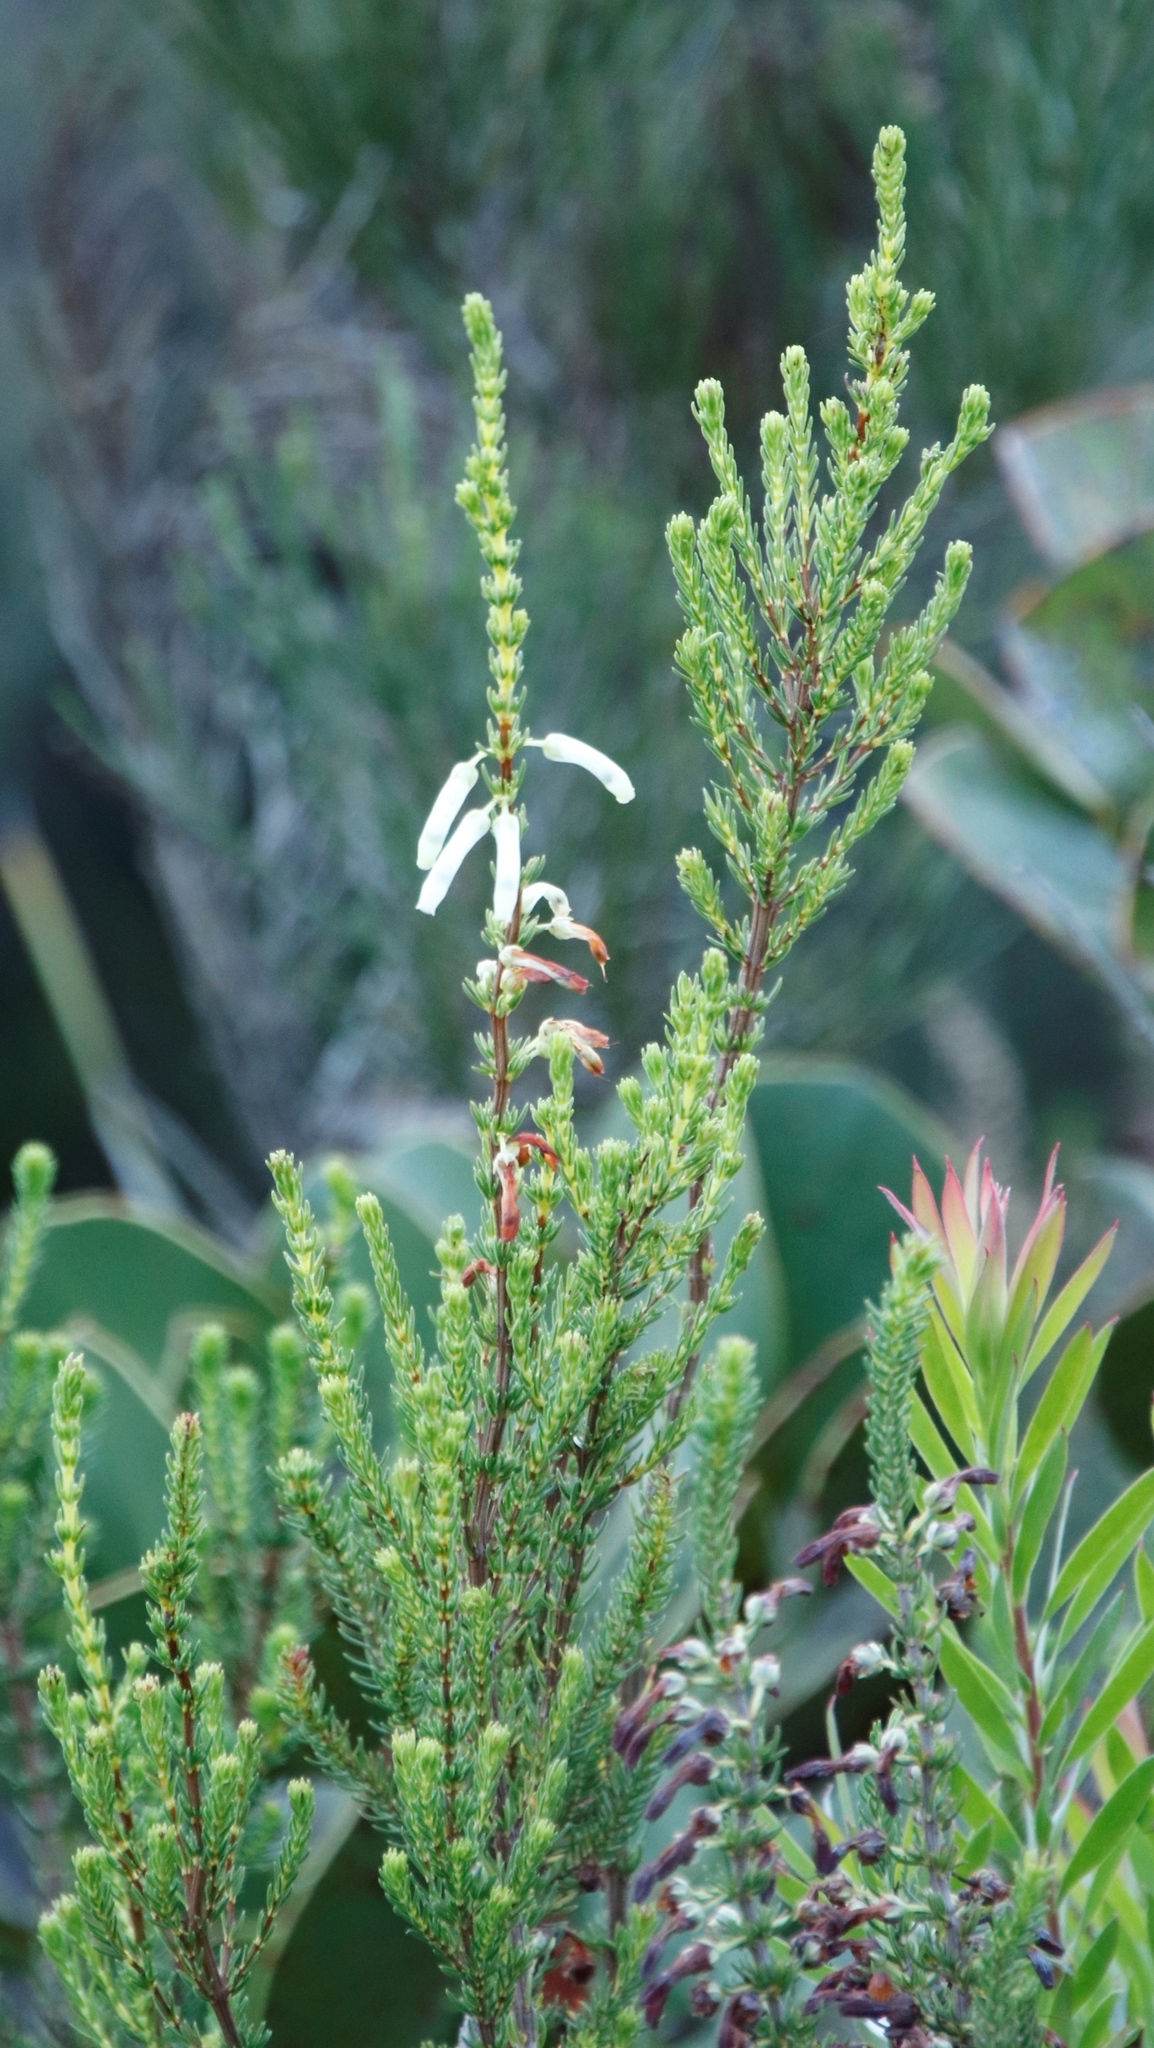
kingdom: Plantae
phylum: Tracheophyta
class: Magnoliopsida
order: Ericales
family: Ericaceae
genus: Erica
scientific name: Erica mammosa
